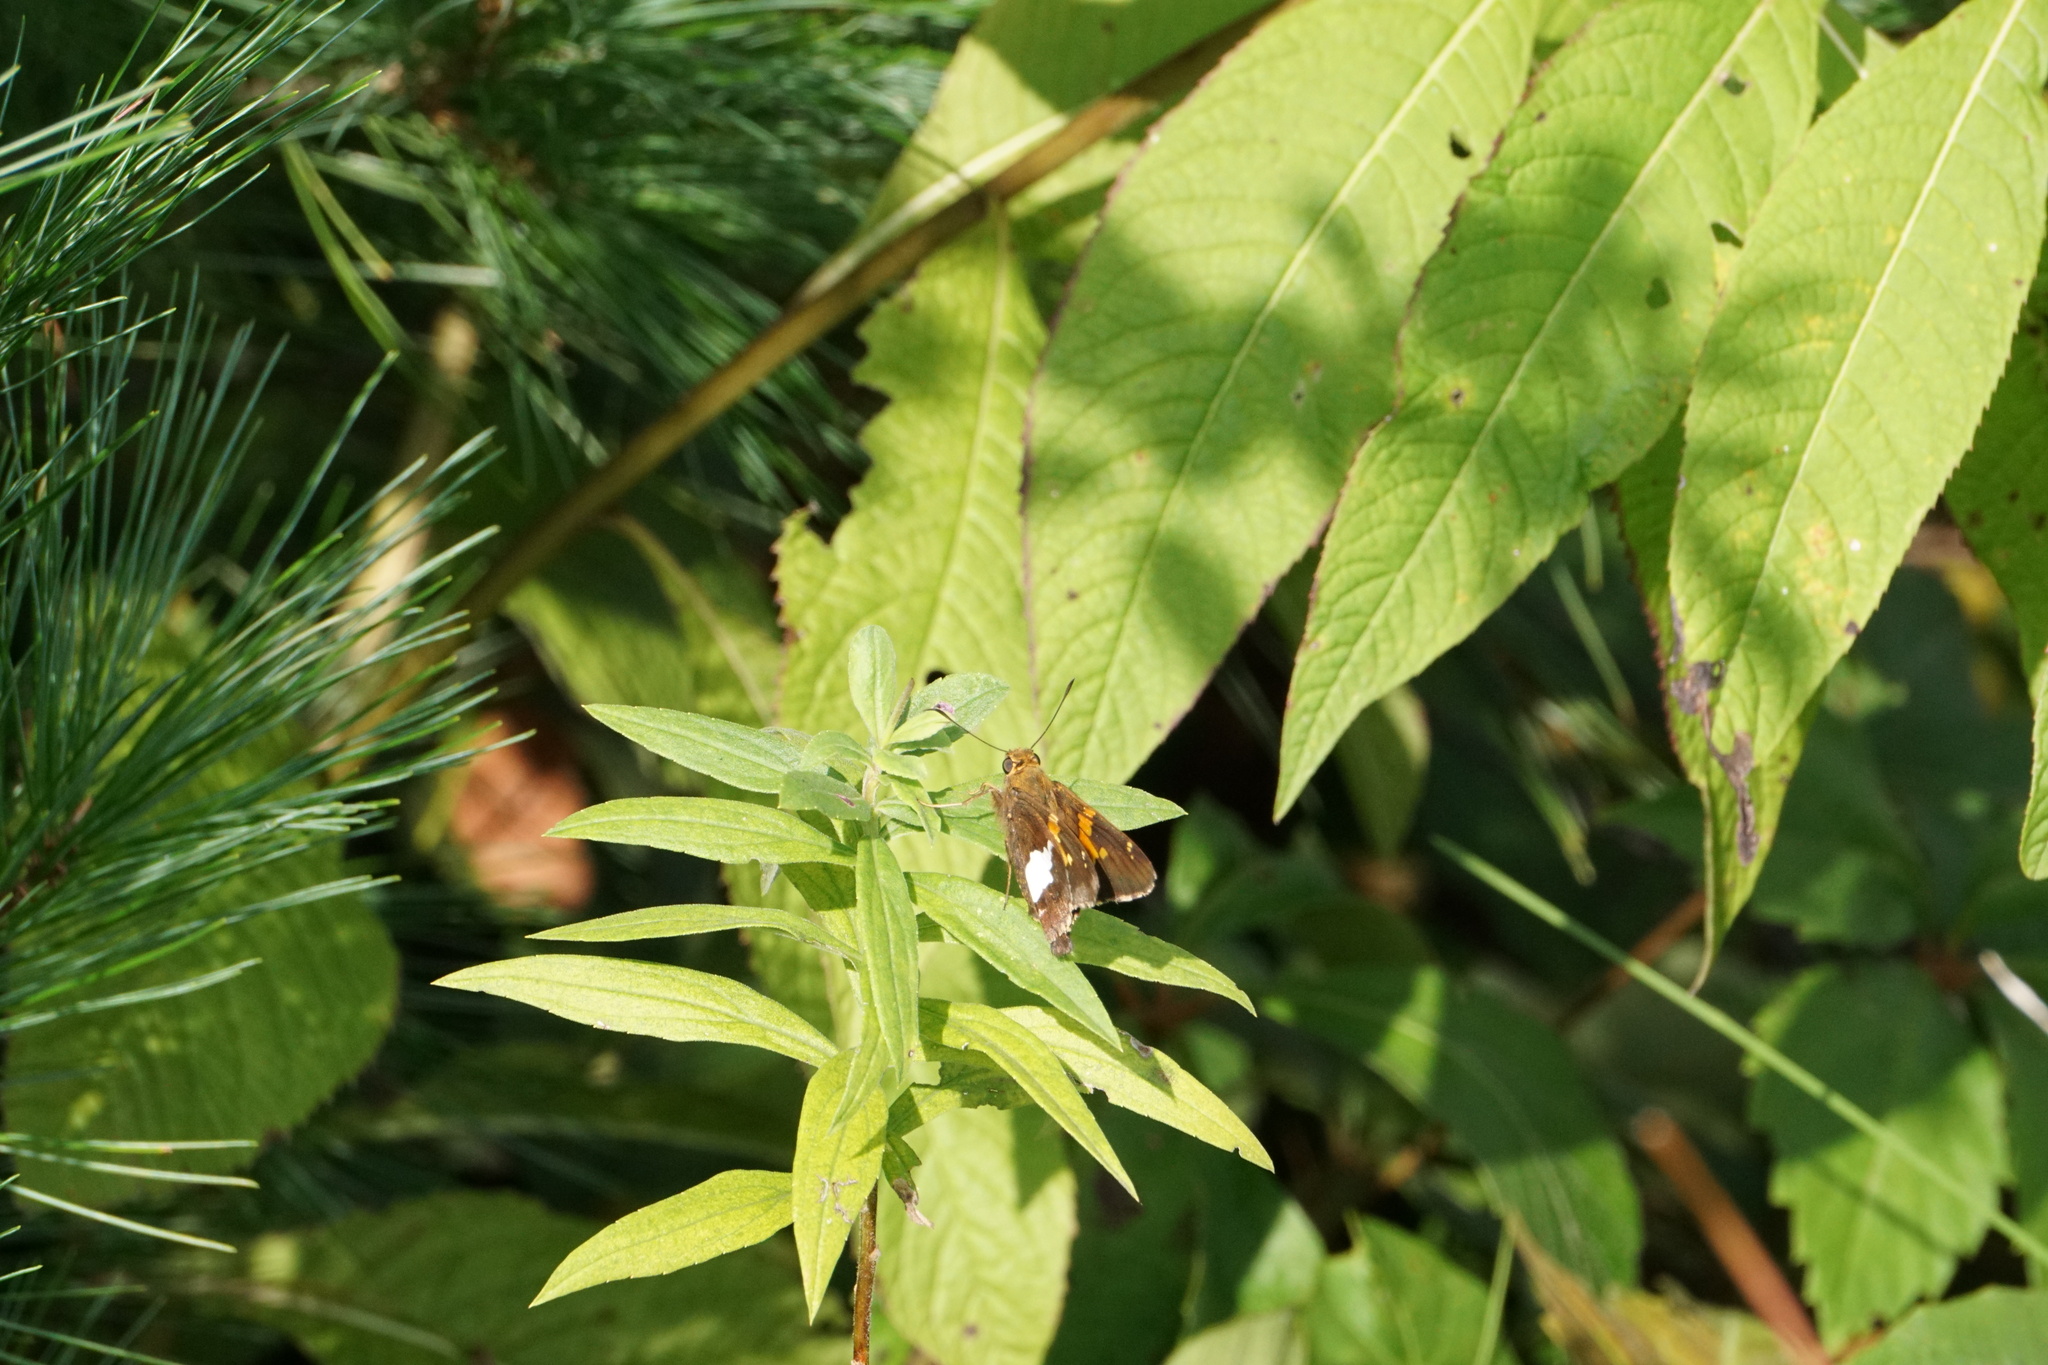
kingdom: Animalia
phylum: Arthropoda
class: Insecta
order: Lepidoptera
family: Hesperiidae
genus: Epargyreus
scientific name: Epargyreus clarus
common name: Silver-spotted skipper
